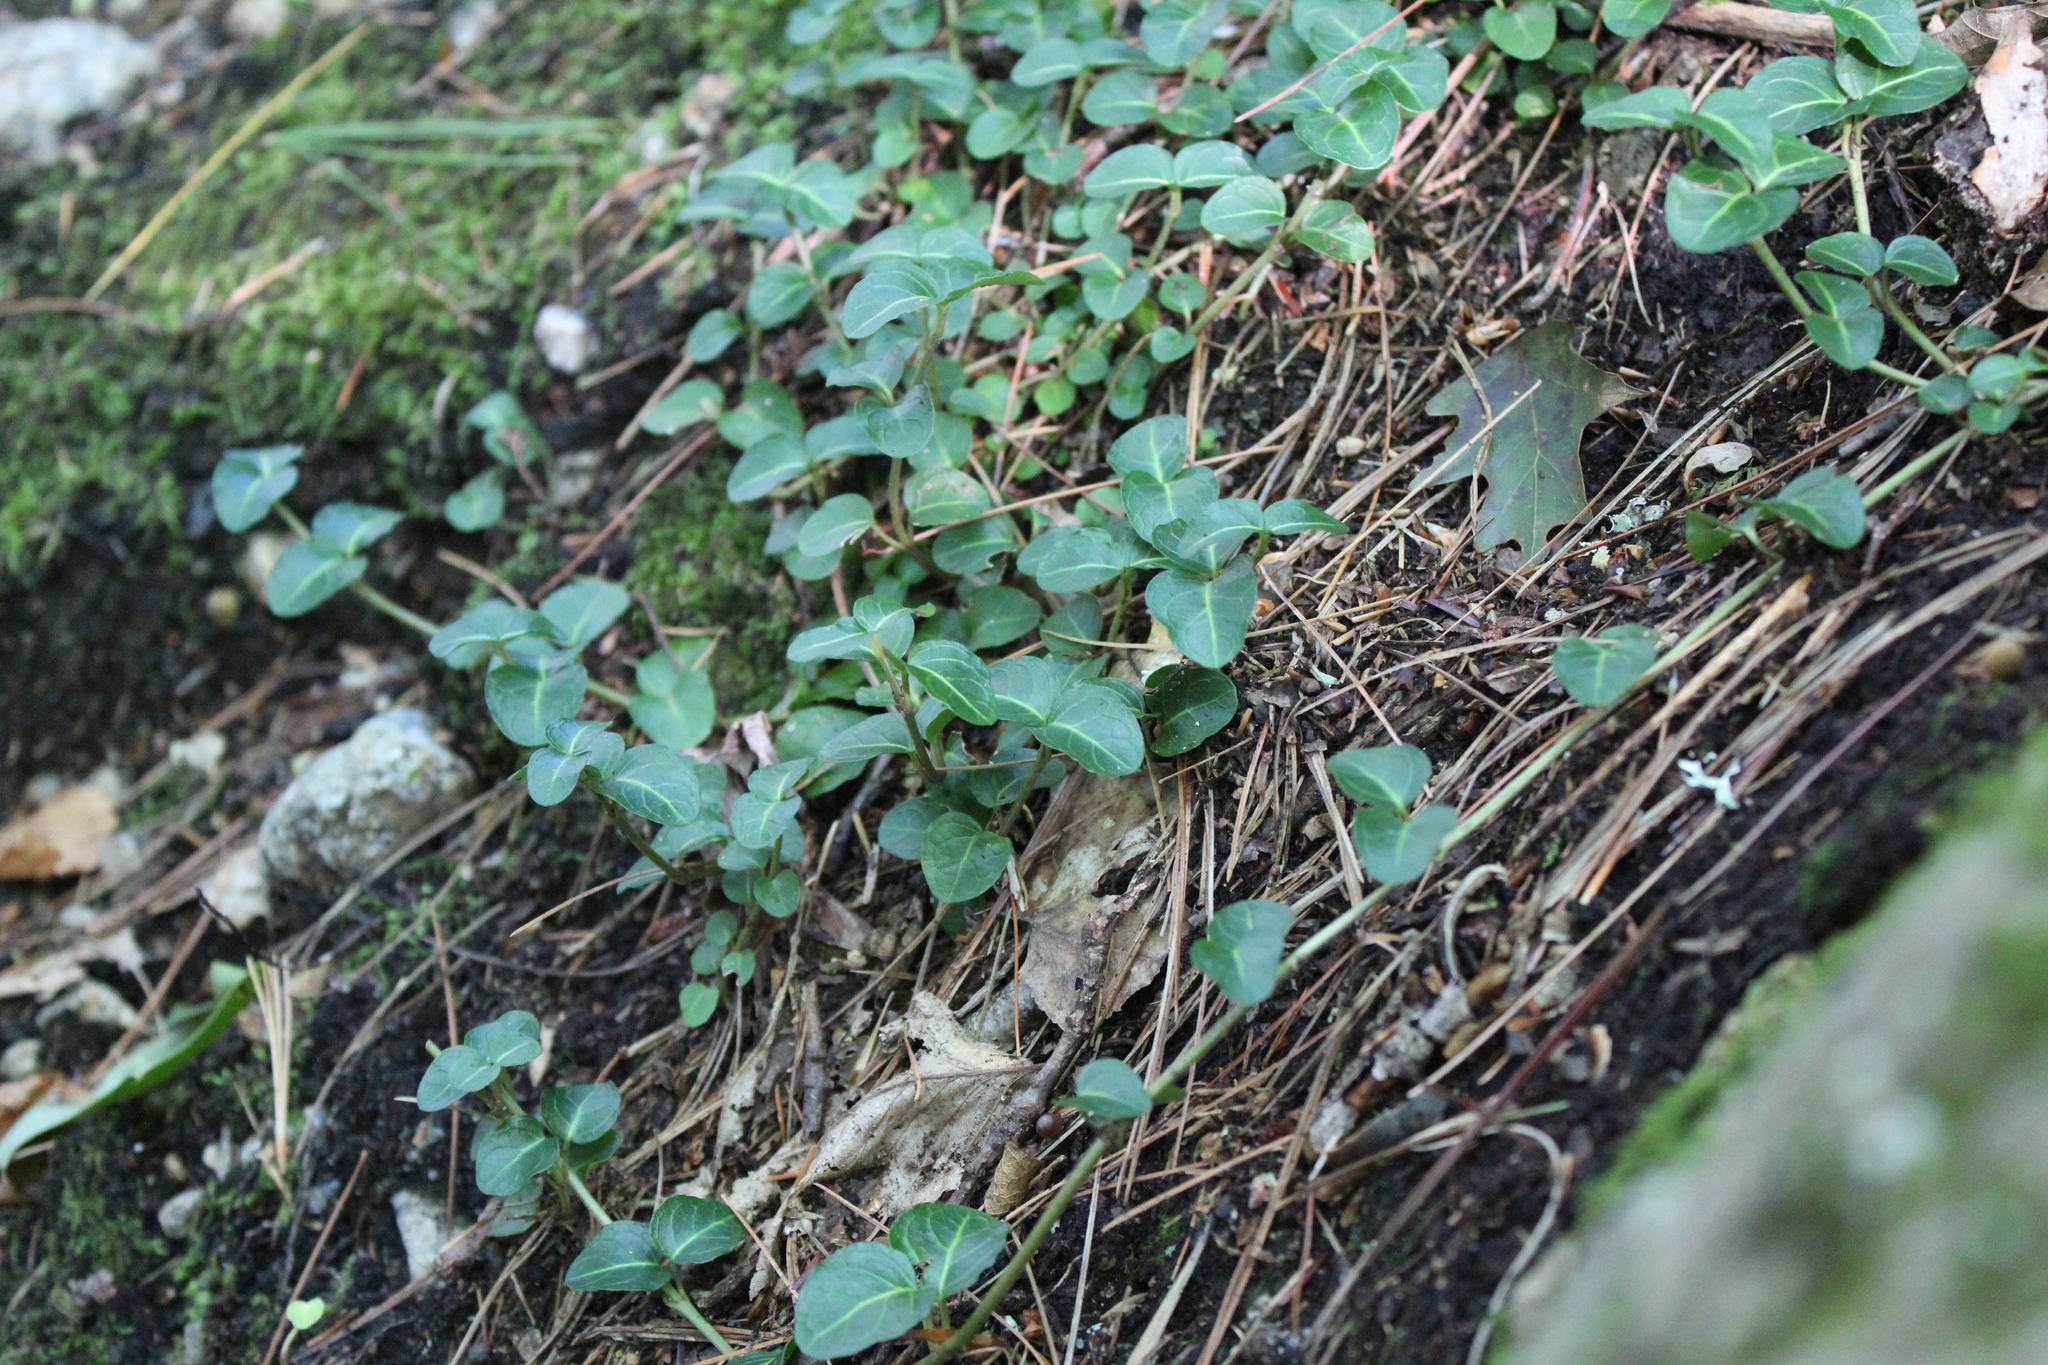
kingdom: Plantae
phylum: Tracheophyta
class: Magnoliopsida
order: Gentianales
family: Rubiaceae
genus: Mitchella
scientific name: Mitchella repens
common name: Partridge-berry
